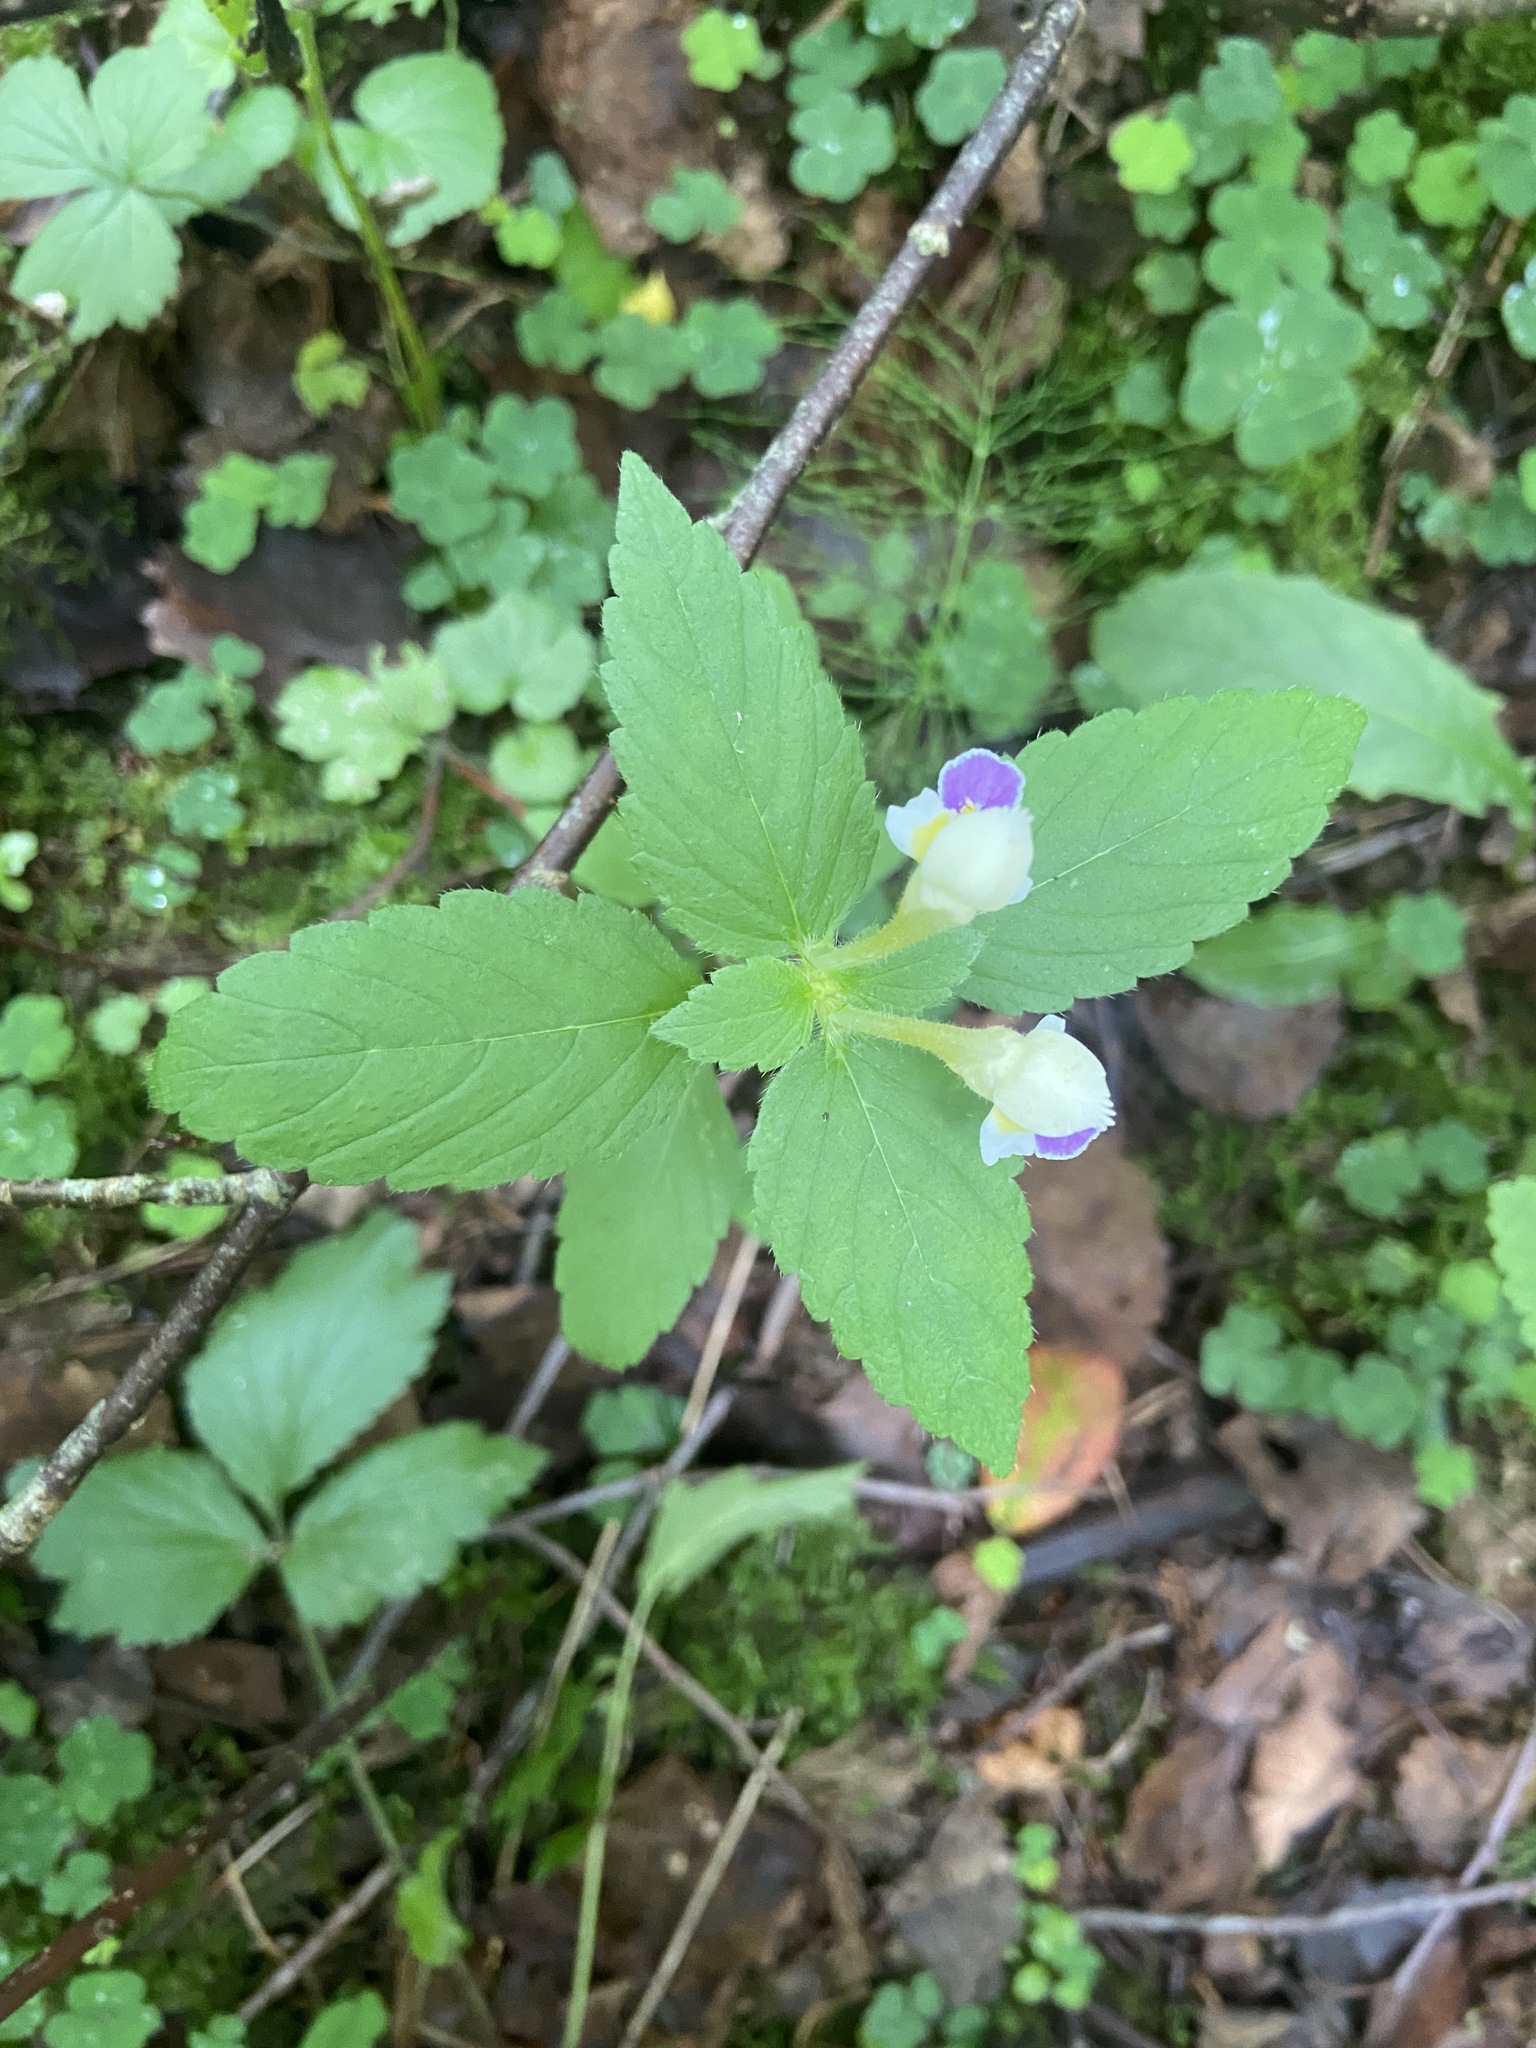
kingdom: Plantae
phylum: Tracheophyta
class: Magnoliopsida
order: Lamiales
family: Lamiaceae
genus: Galeopsis
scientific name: Galeopsis speciosa
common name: Large-flowered hemp-nettle
